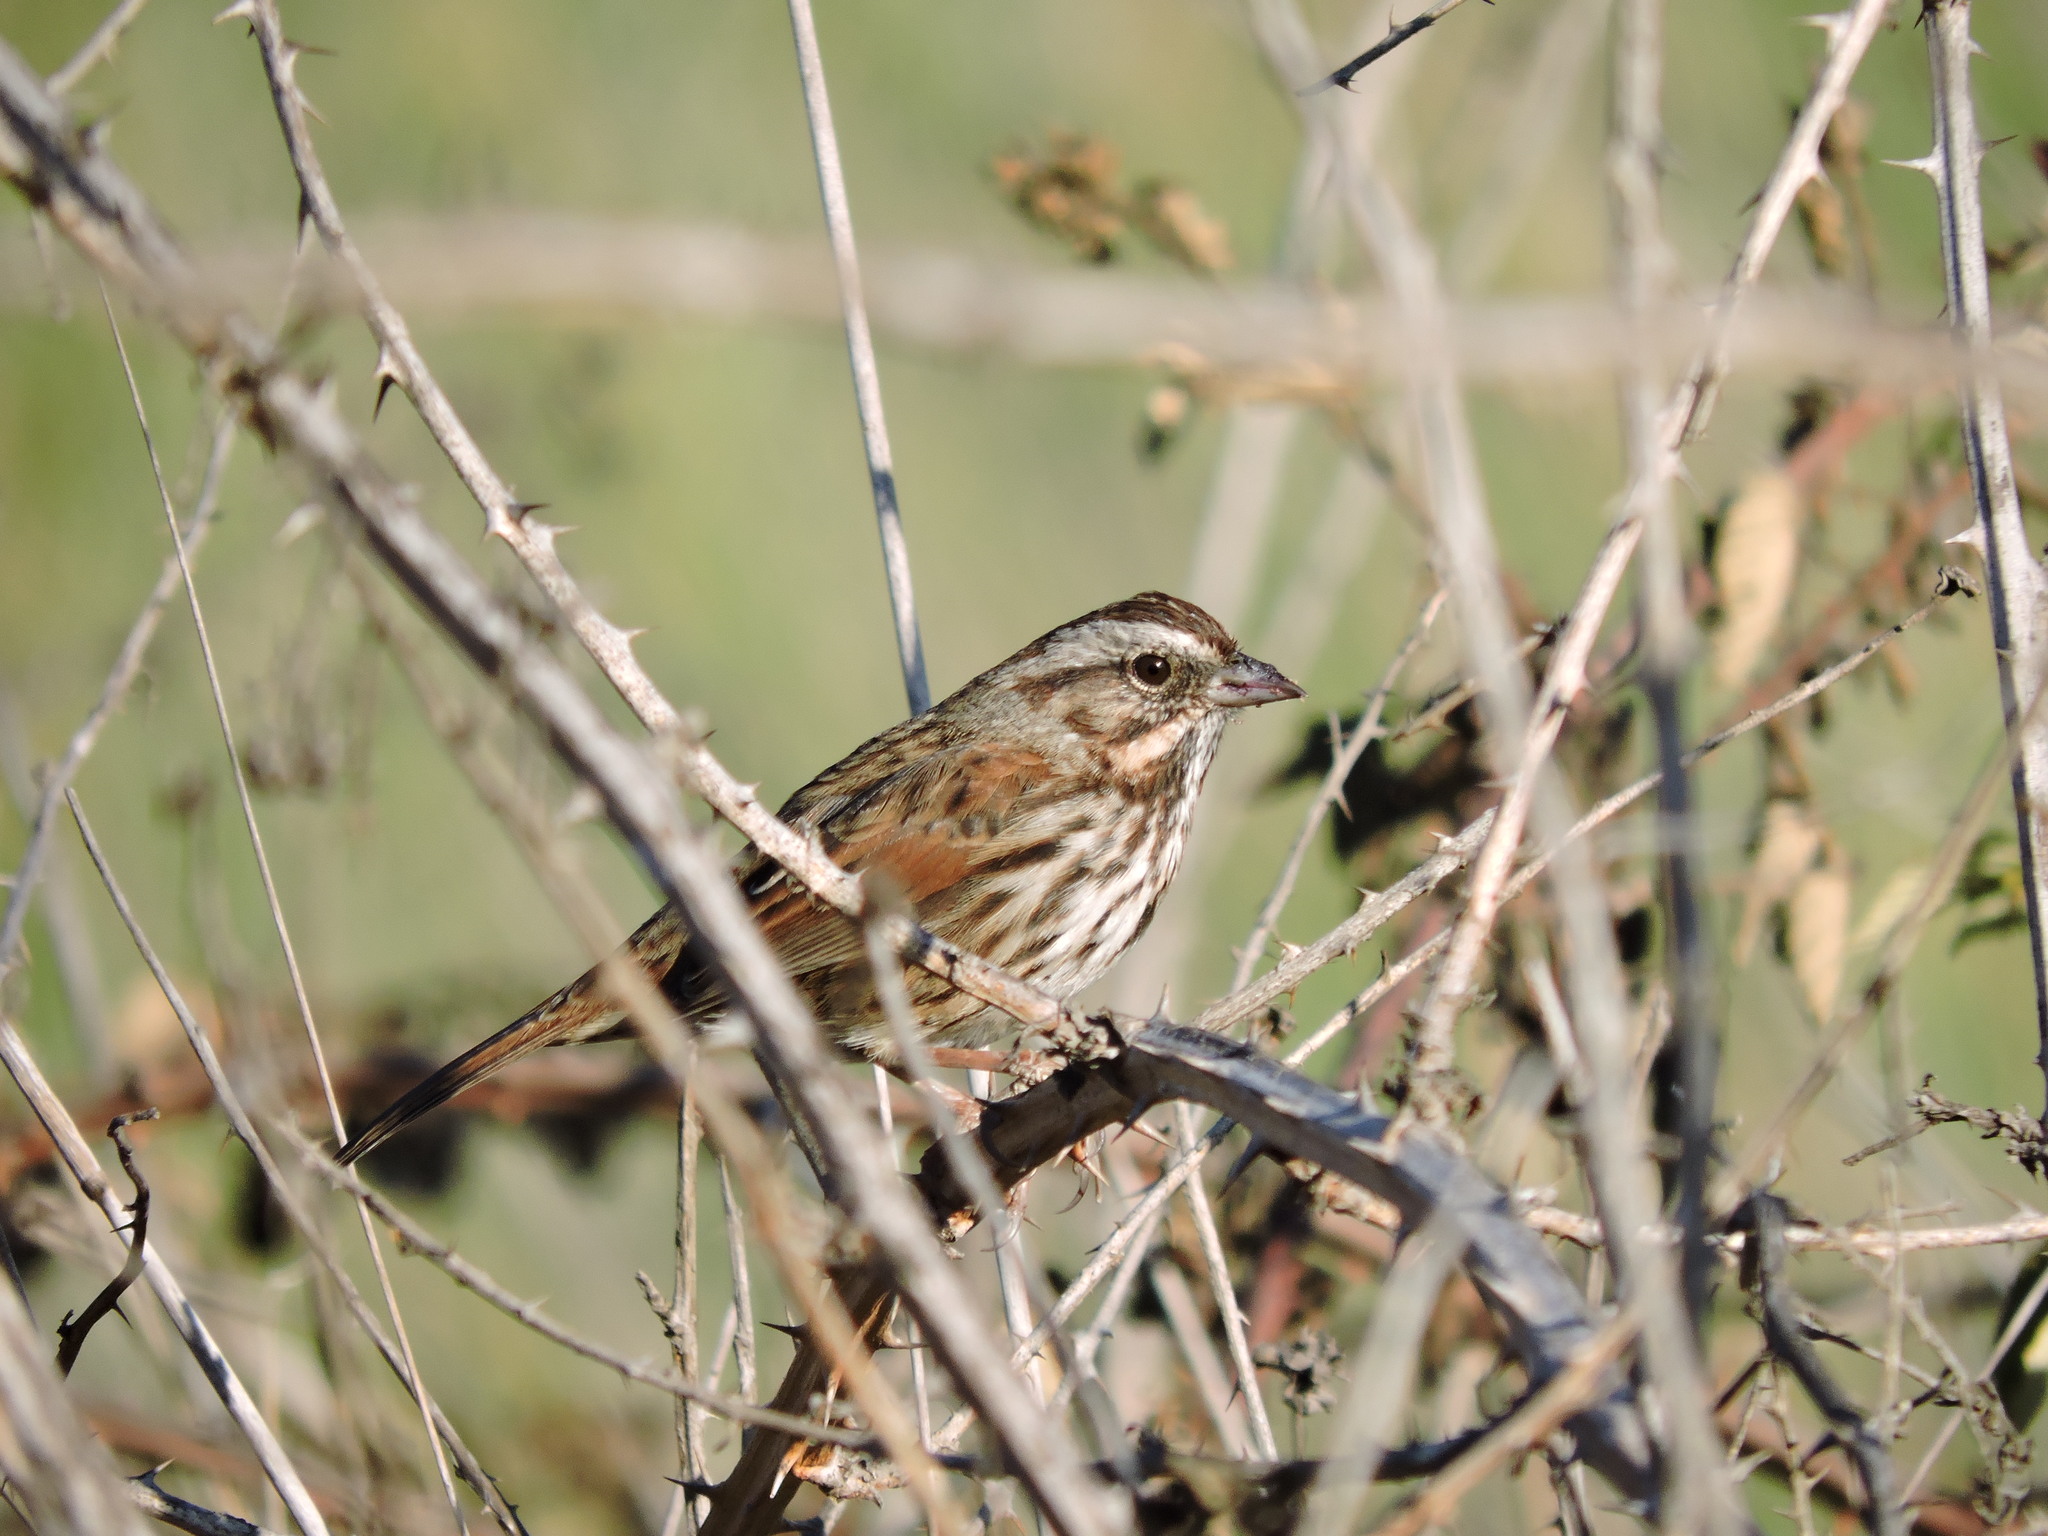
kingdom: Animalia
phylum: Chordata
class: Aves
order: Passeriformes
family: Passerellidae
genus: Melospiza
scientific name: Melospiza melodia
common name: Song sparrow
